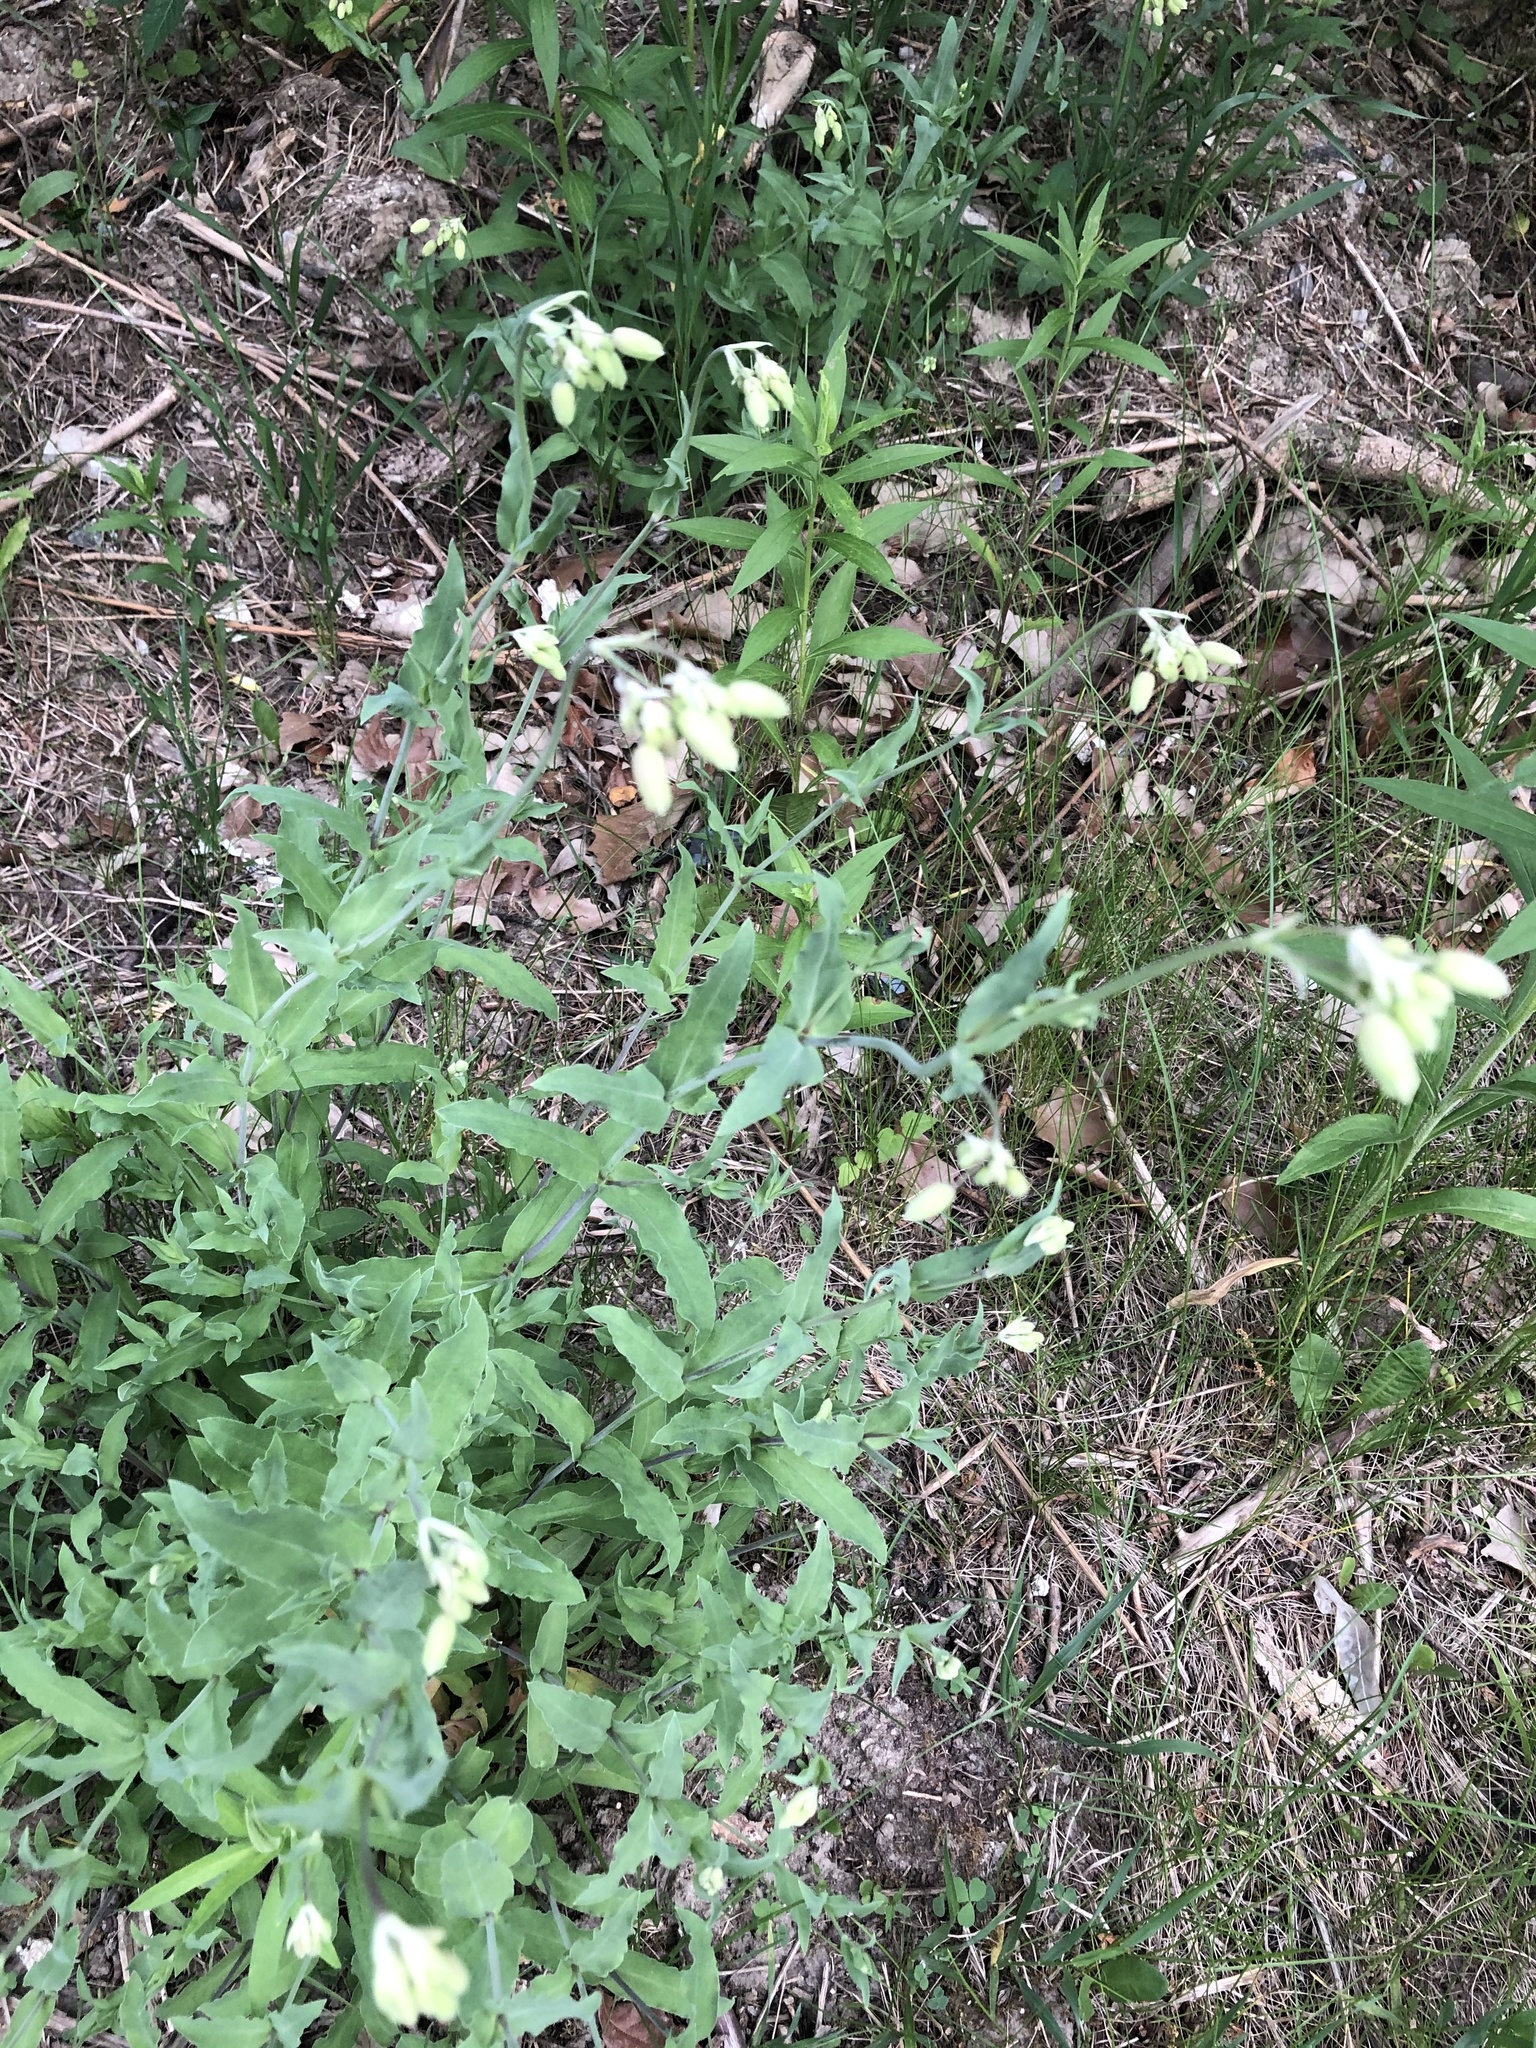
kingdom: Plantae
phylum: Tracheophyta
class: Magnoliopsida
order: Caryophyllales
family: Caryophyllaceae
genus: Silene
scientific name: Silene vulgaris
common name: Bladder campion
